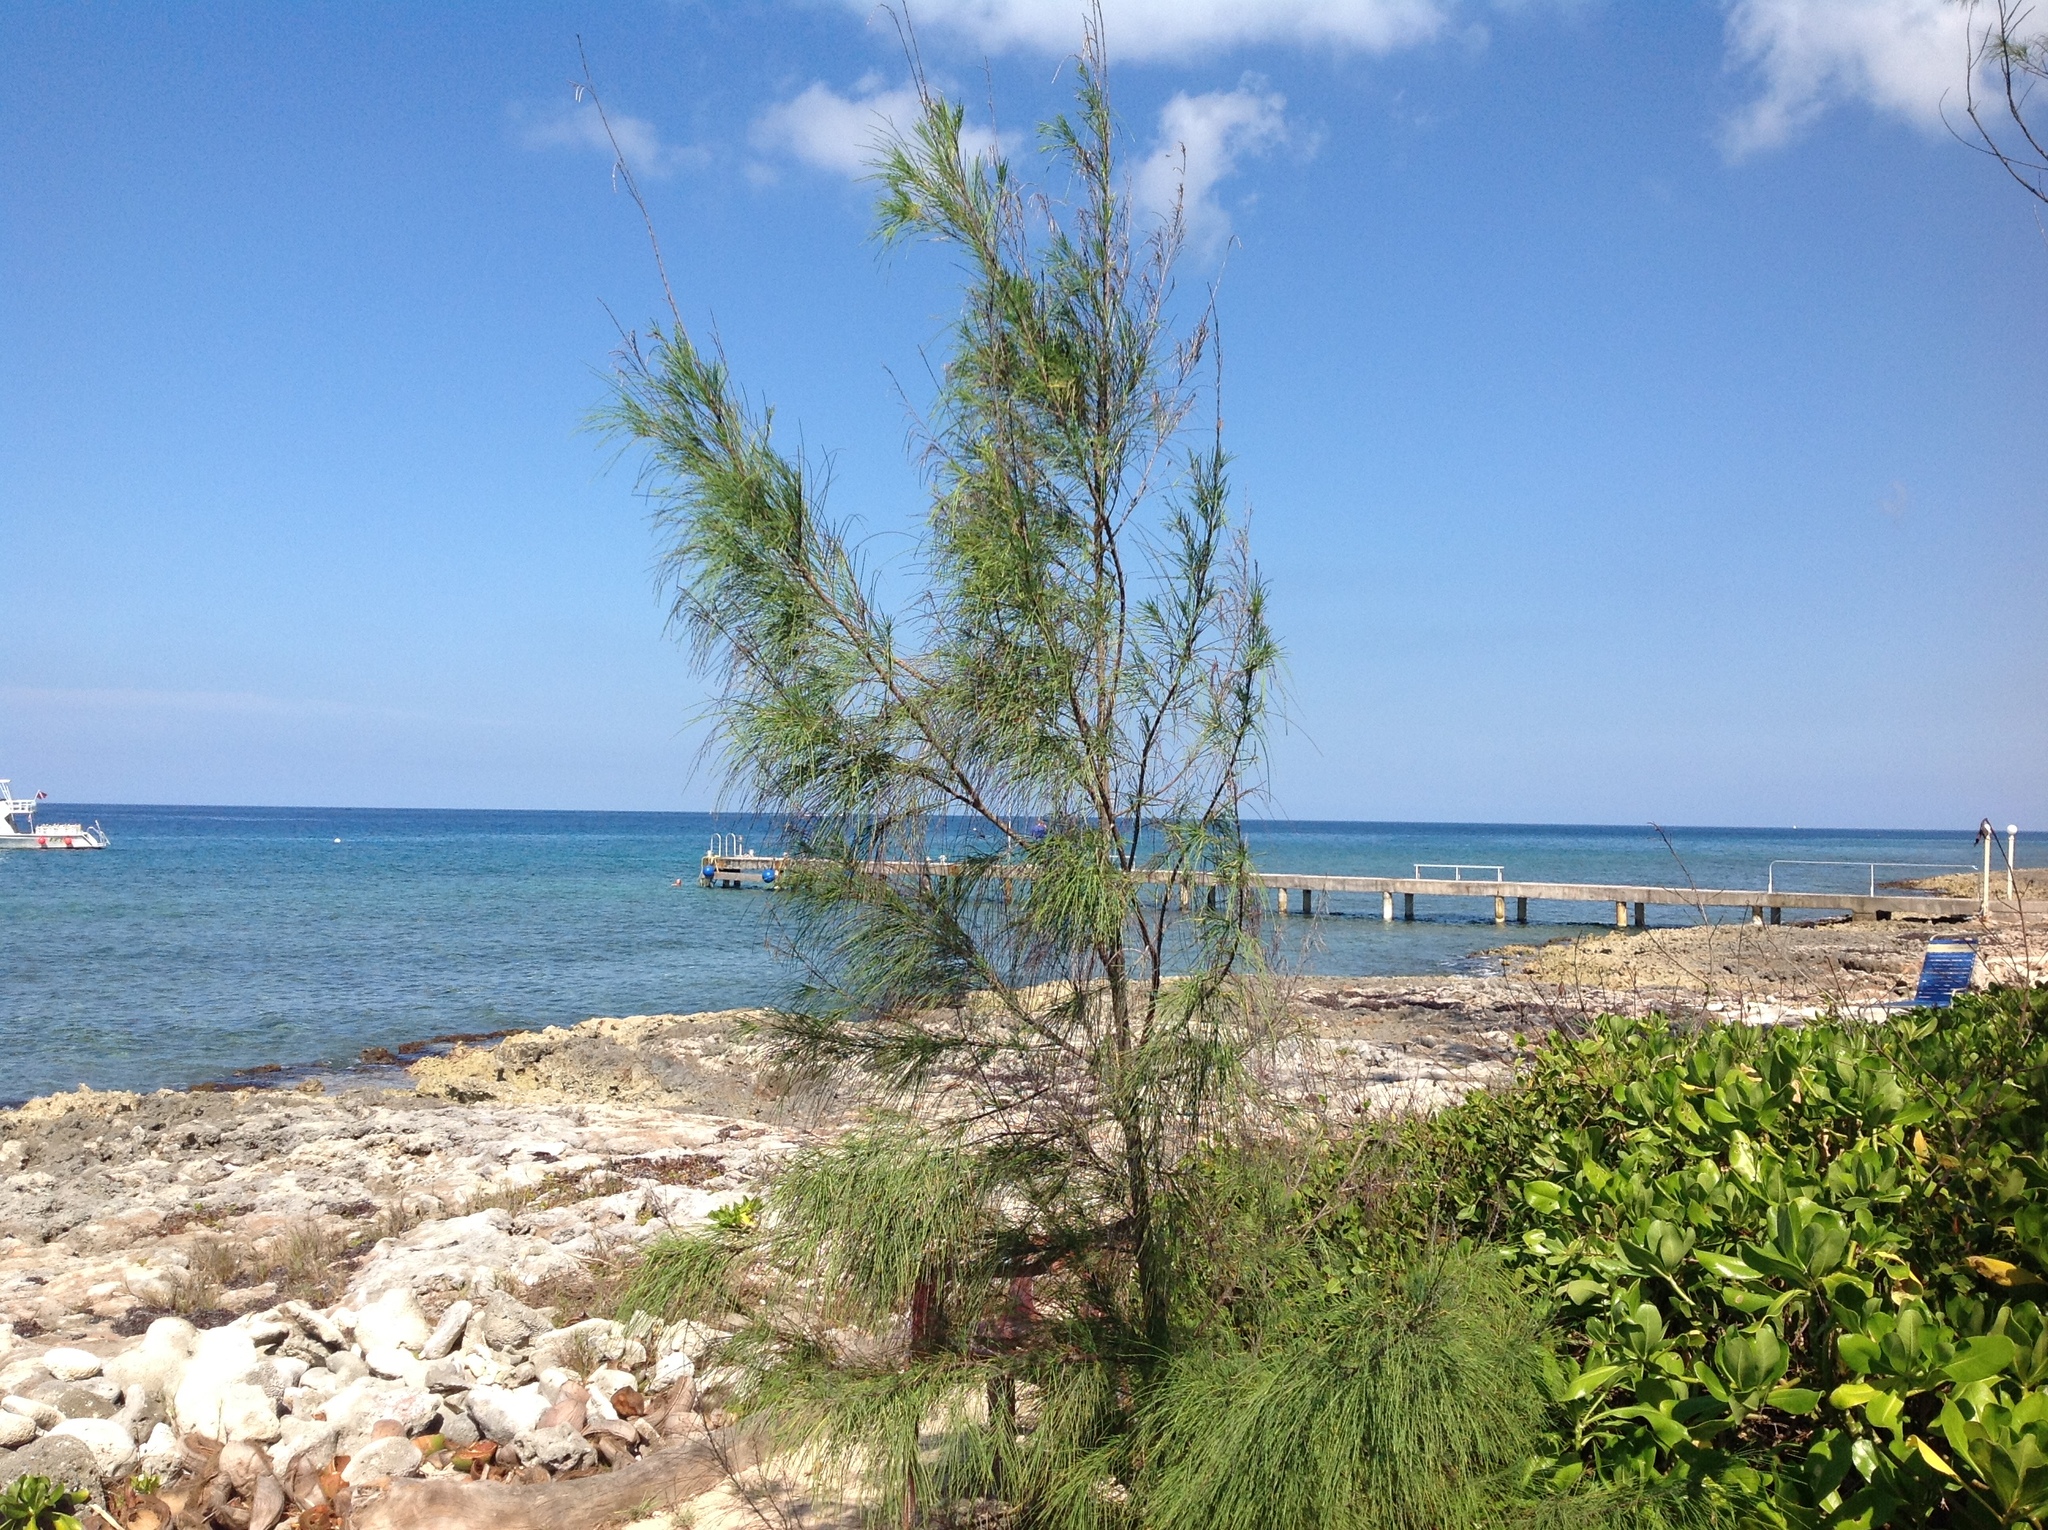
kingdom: Plantae
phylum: Tracheophyta
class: Magnoliopsida
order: Fagales
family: Casuarinaceae
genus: Casuarina
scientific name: Casuarina equisetifolia
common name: Beach sheoak
